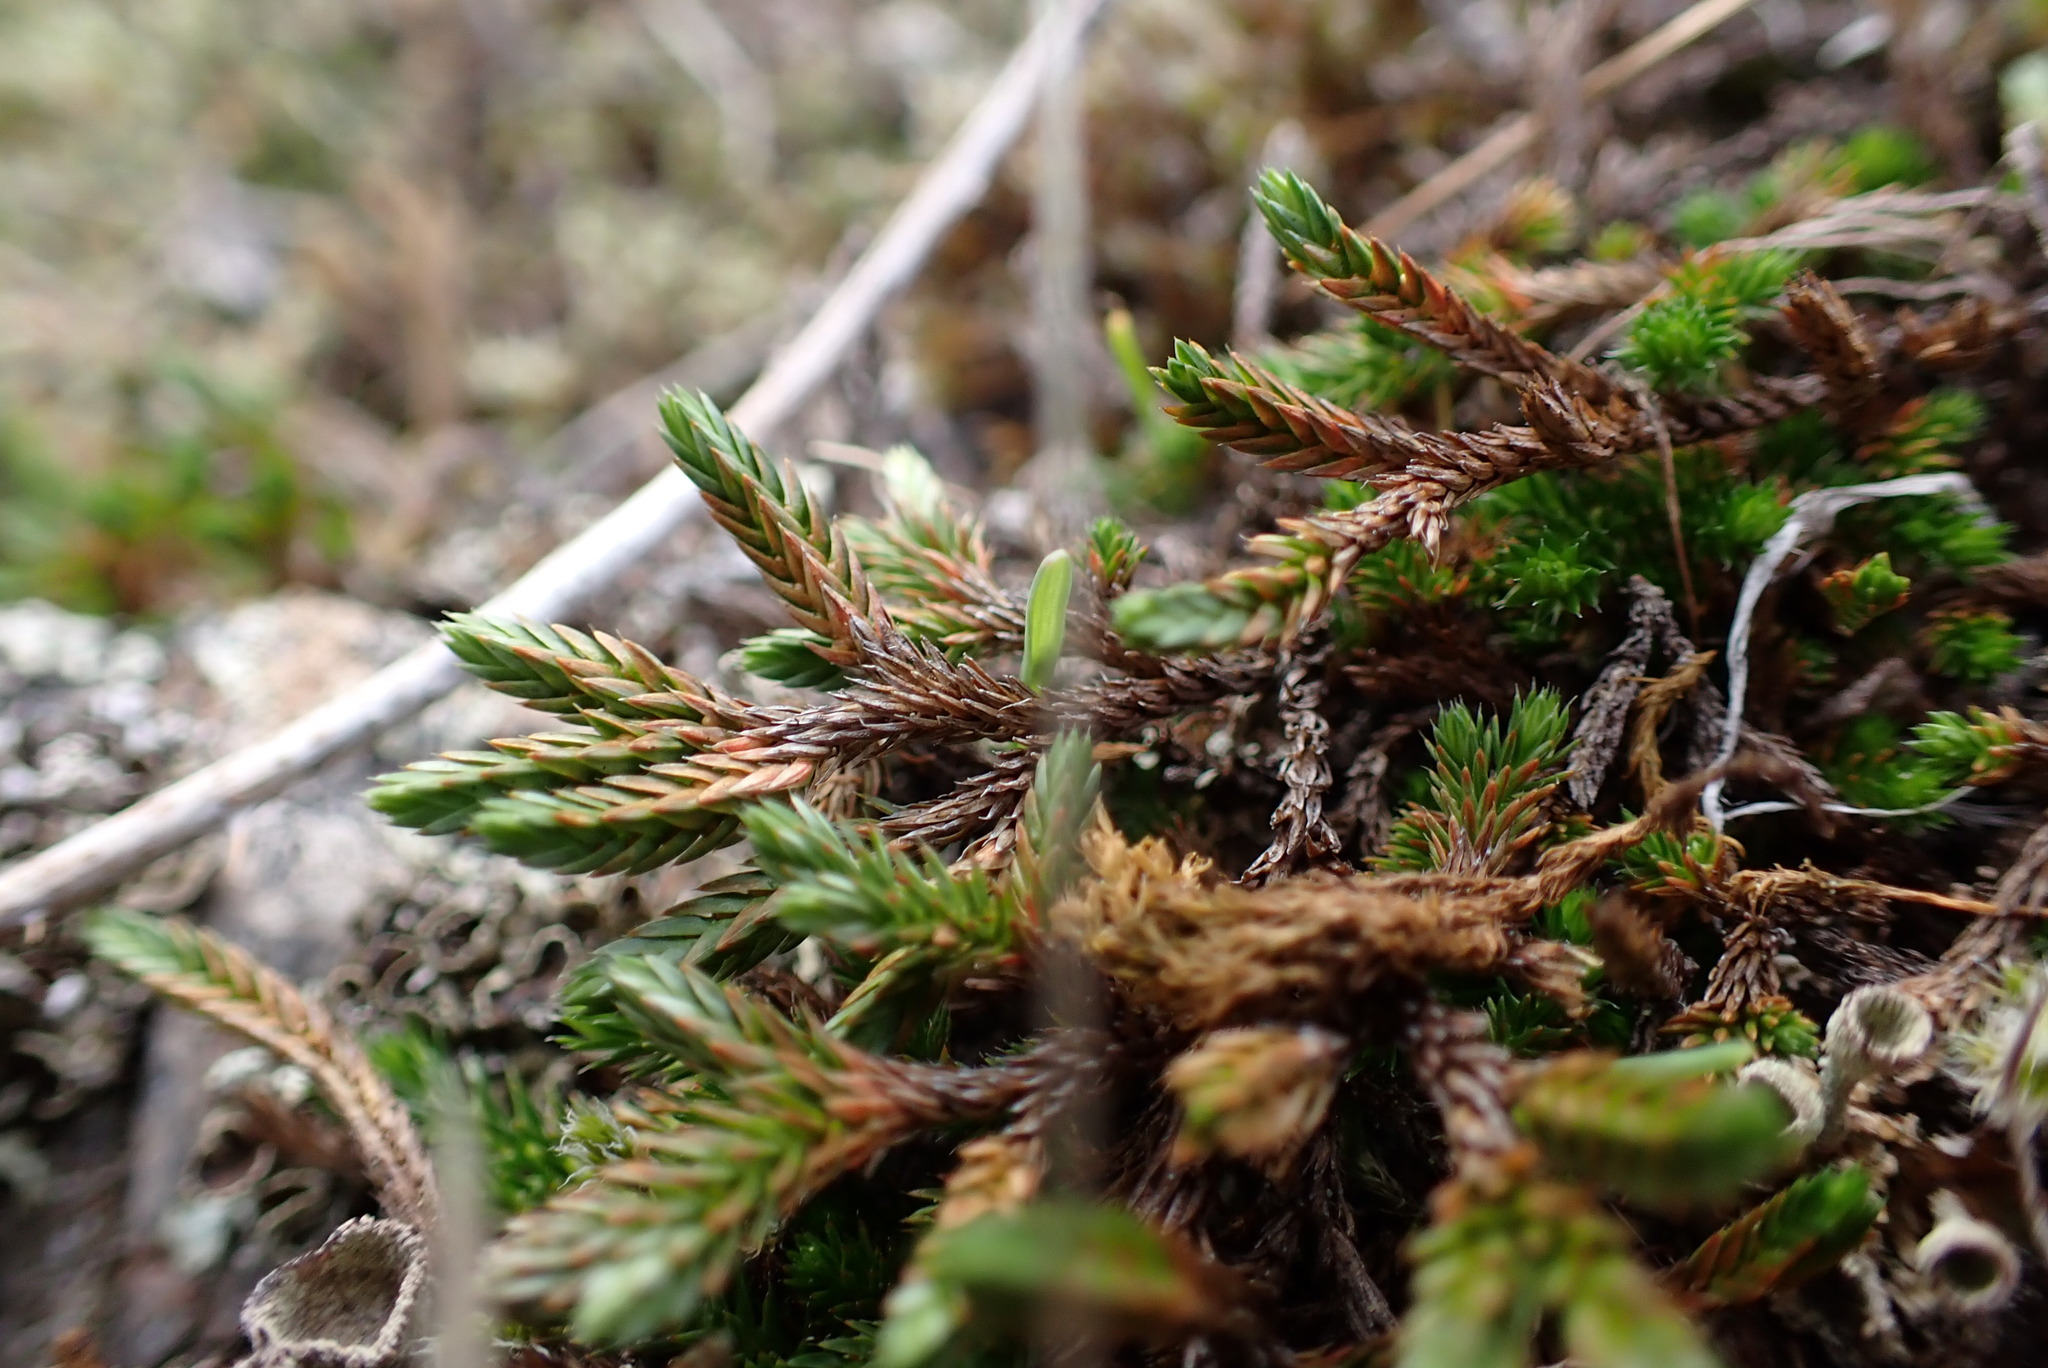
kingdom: Plantae
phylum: Tracheophyta
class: Lycopodiopsida
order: Selaginellales
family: Selaginellaceae
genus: Selaginella
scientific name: Selaginella wallacei
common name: Wallace's selaginella
